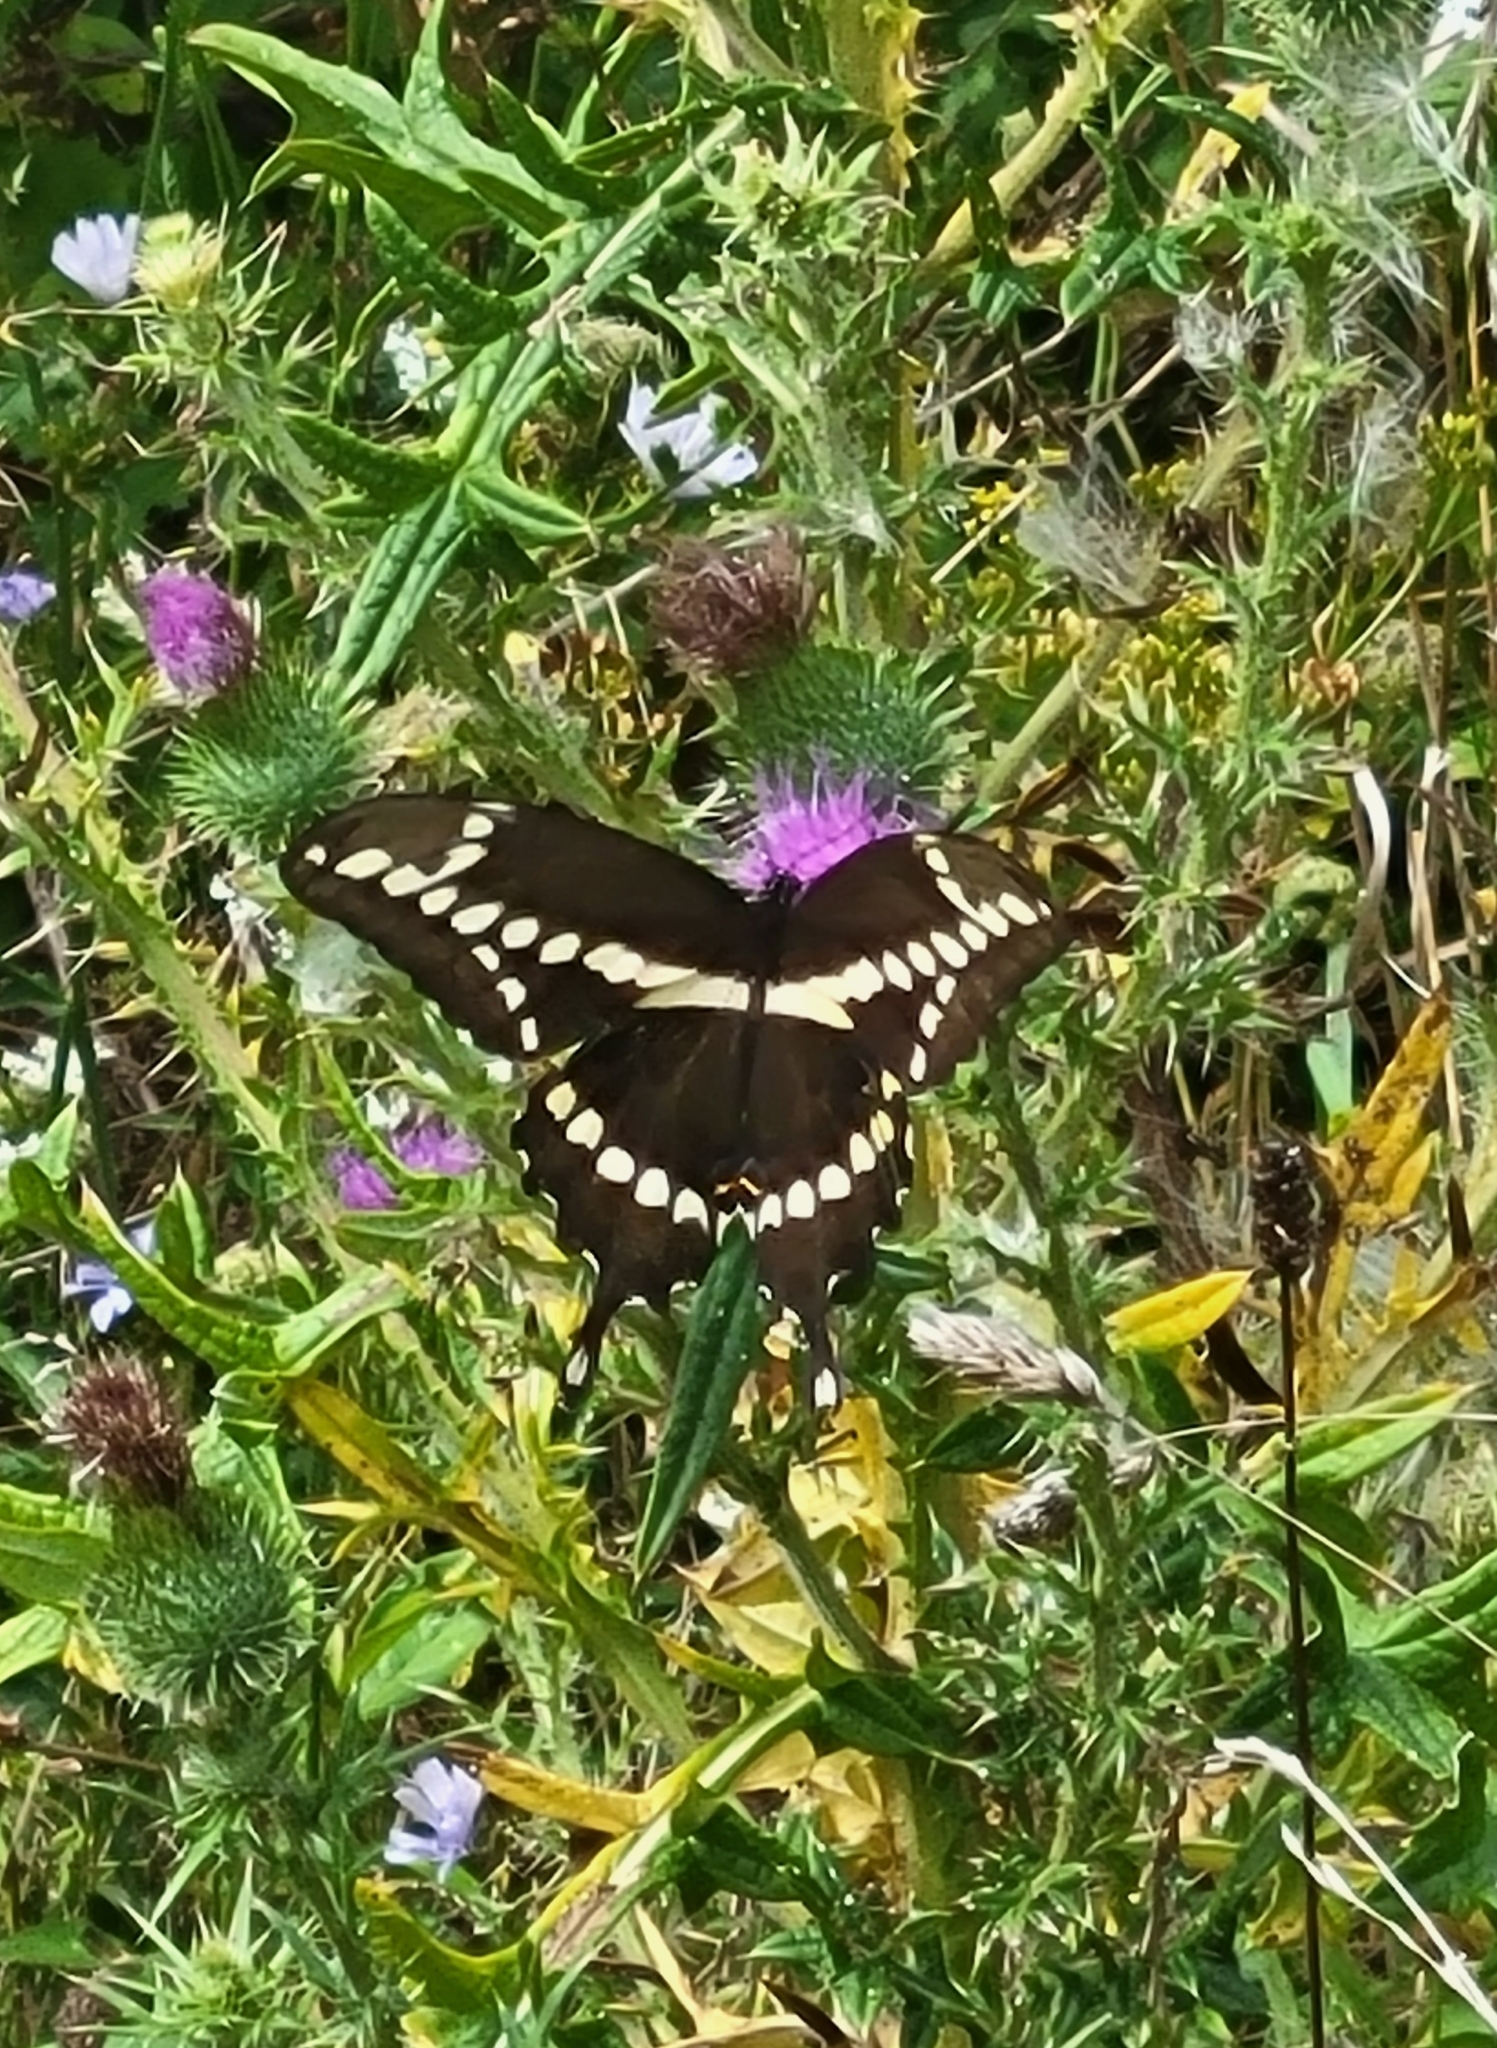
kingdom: Animalia
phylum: Arthropoda
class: Insecta
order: Lepidoptera
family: Papilionidae
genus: Papilio
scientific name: Papilio cresphontes
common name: Giant swallowtail
